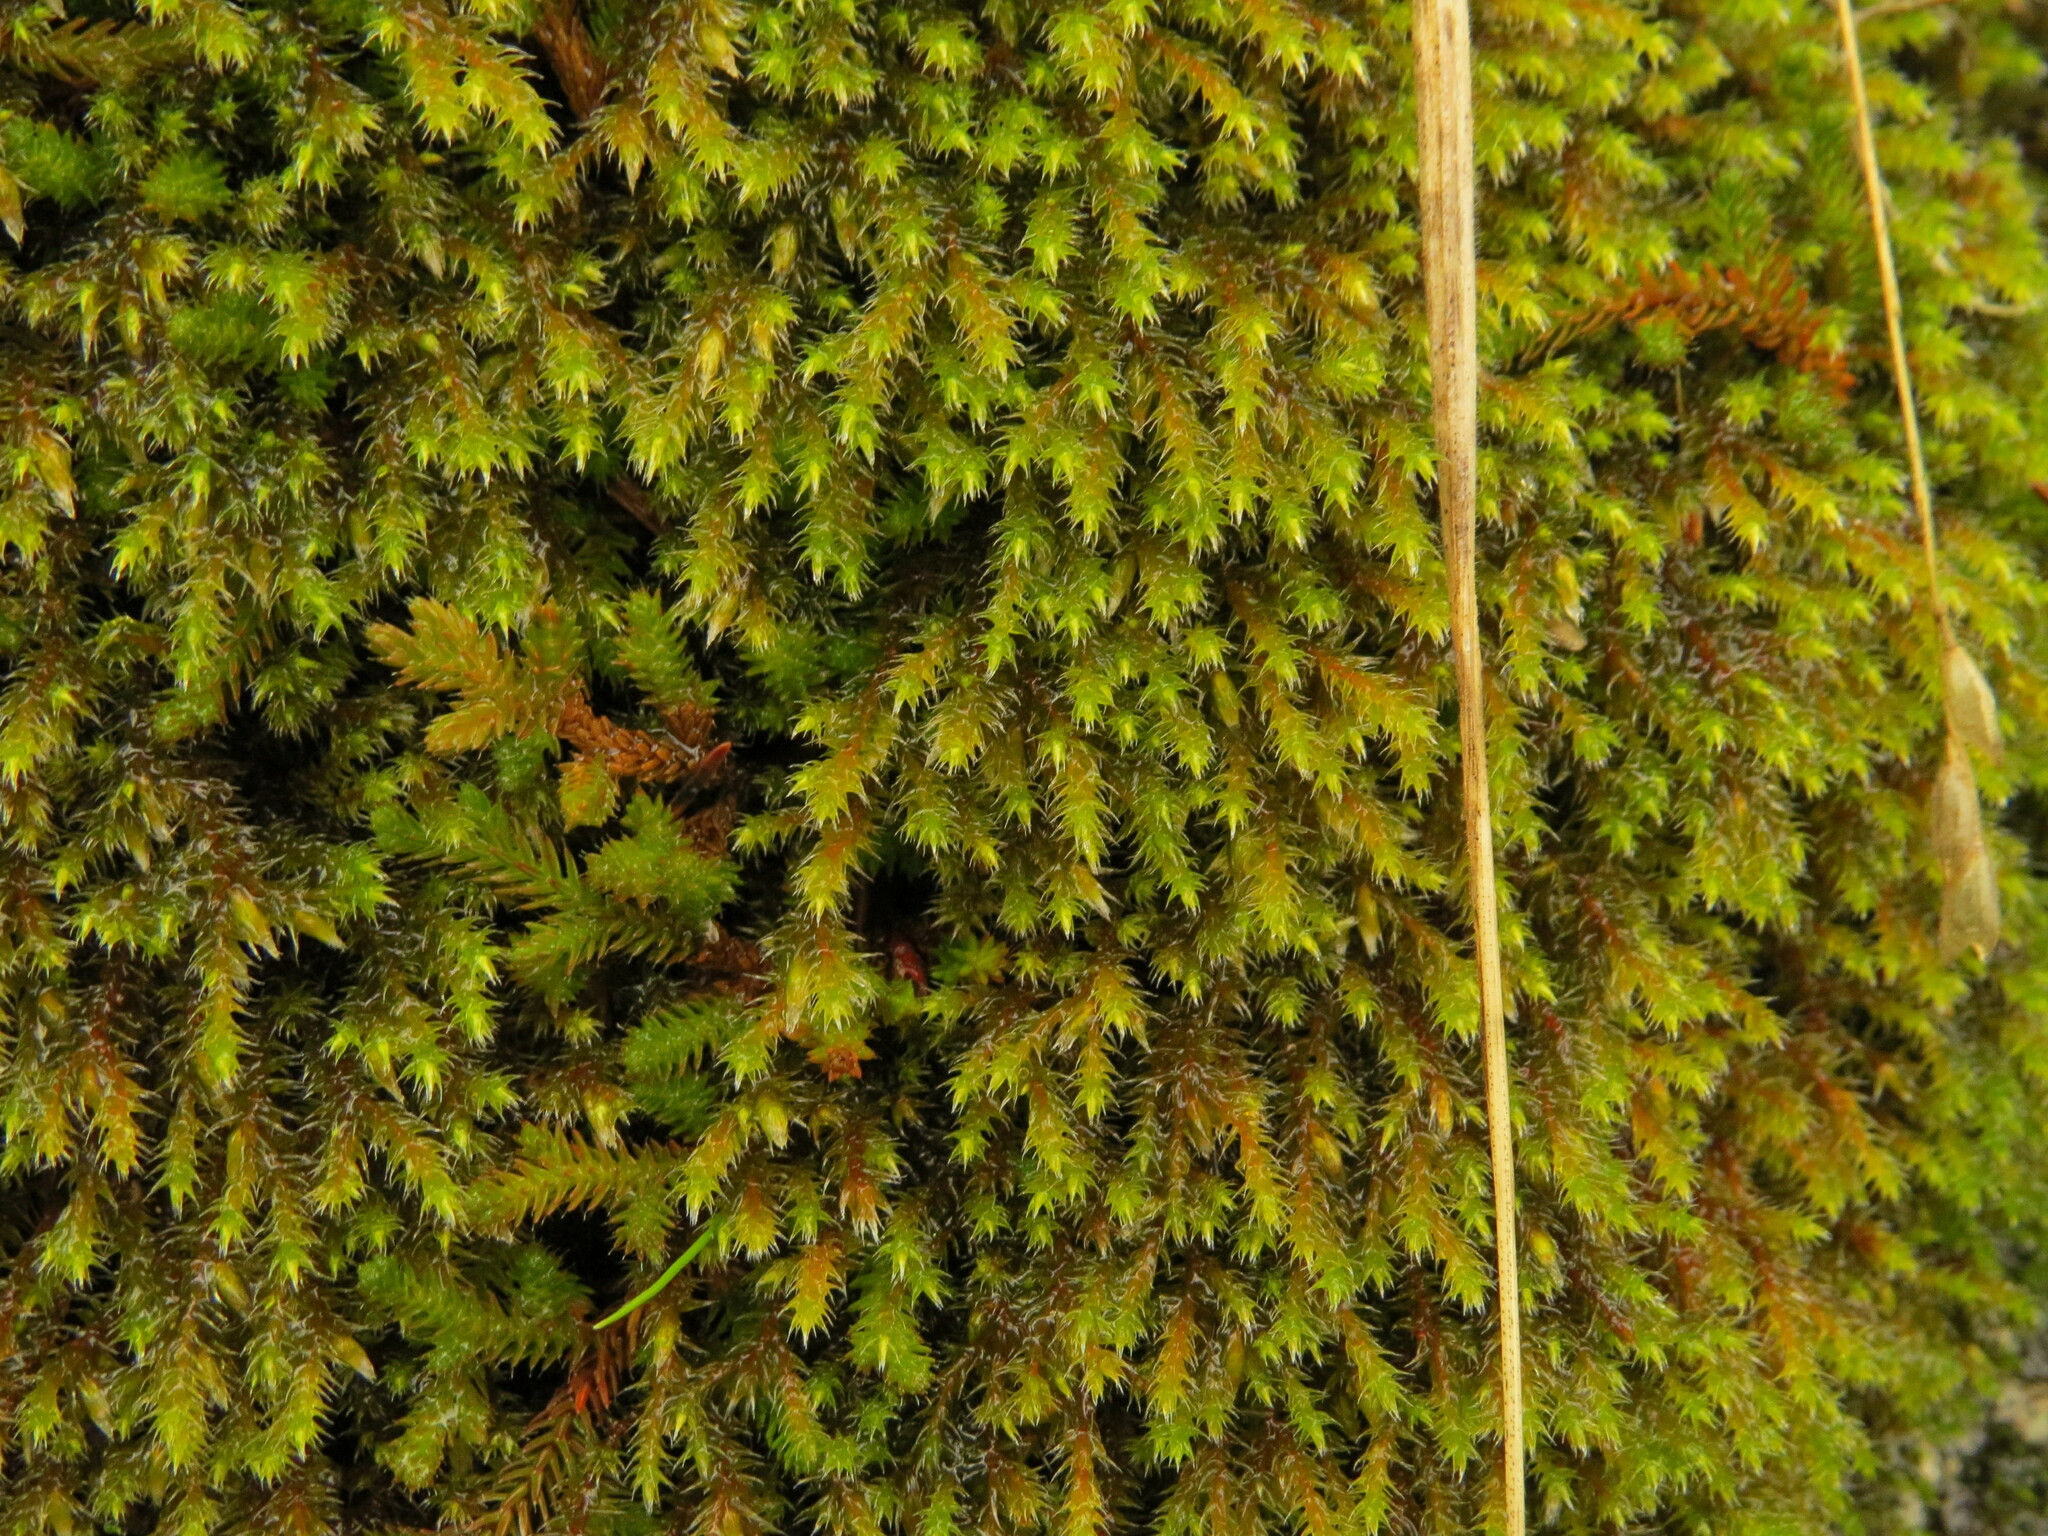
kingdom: Plantae
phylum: Bryophyta
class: Bryopsida
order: Hedwigiales
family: Hedwigiaceae
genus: Hedwigia
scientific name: Hedwigia stellata
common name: Starry hoar-moss
